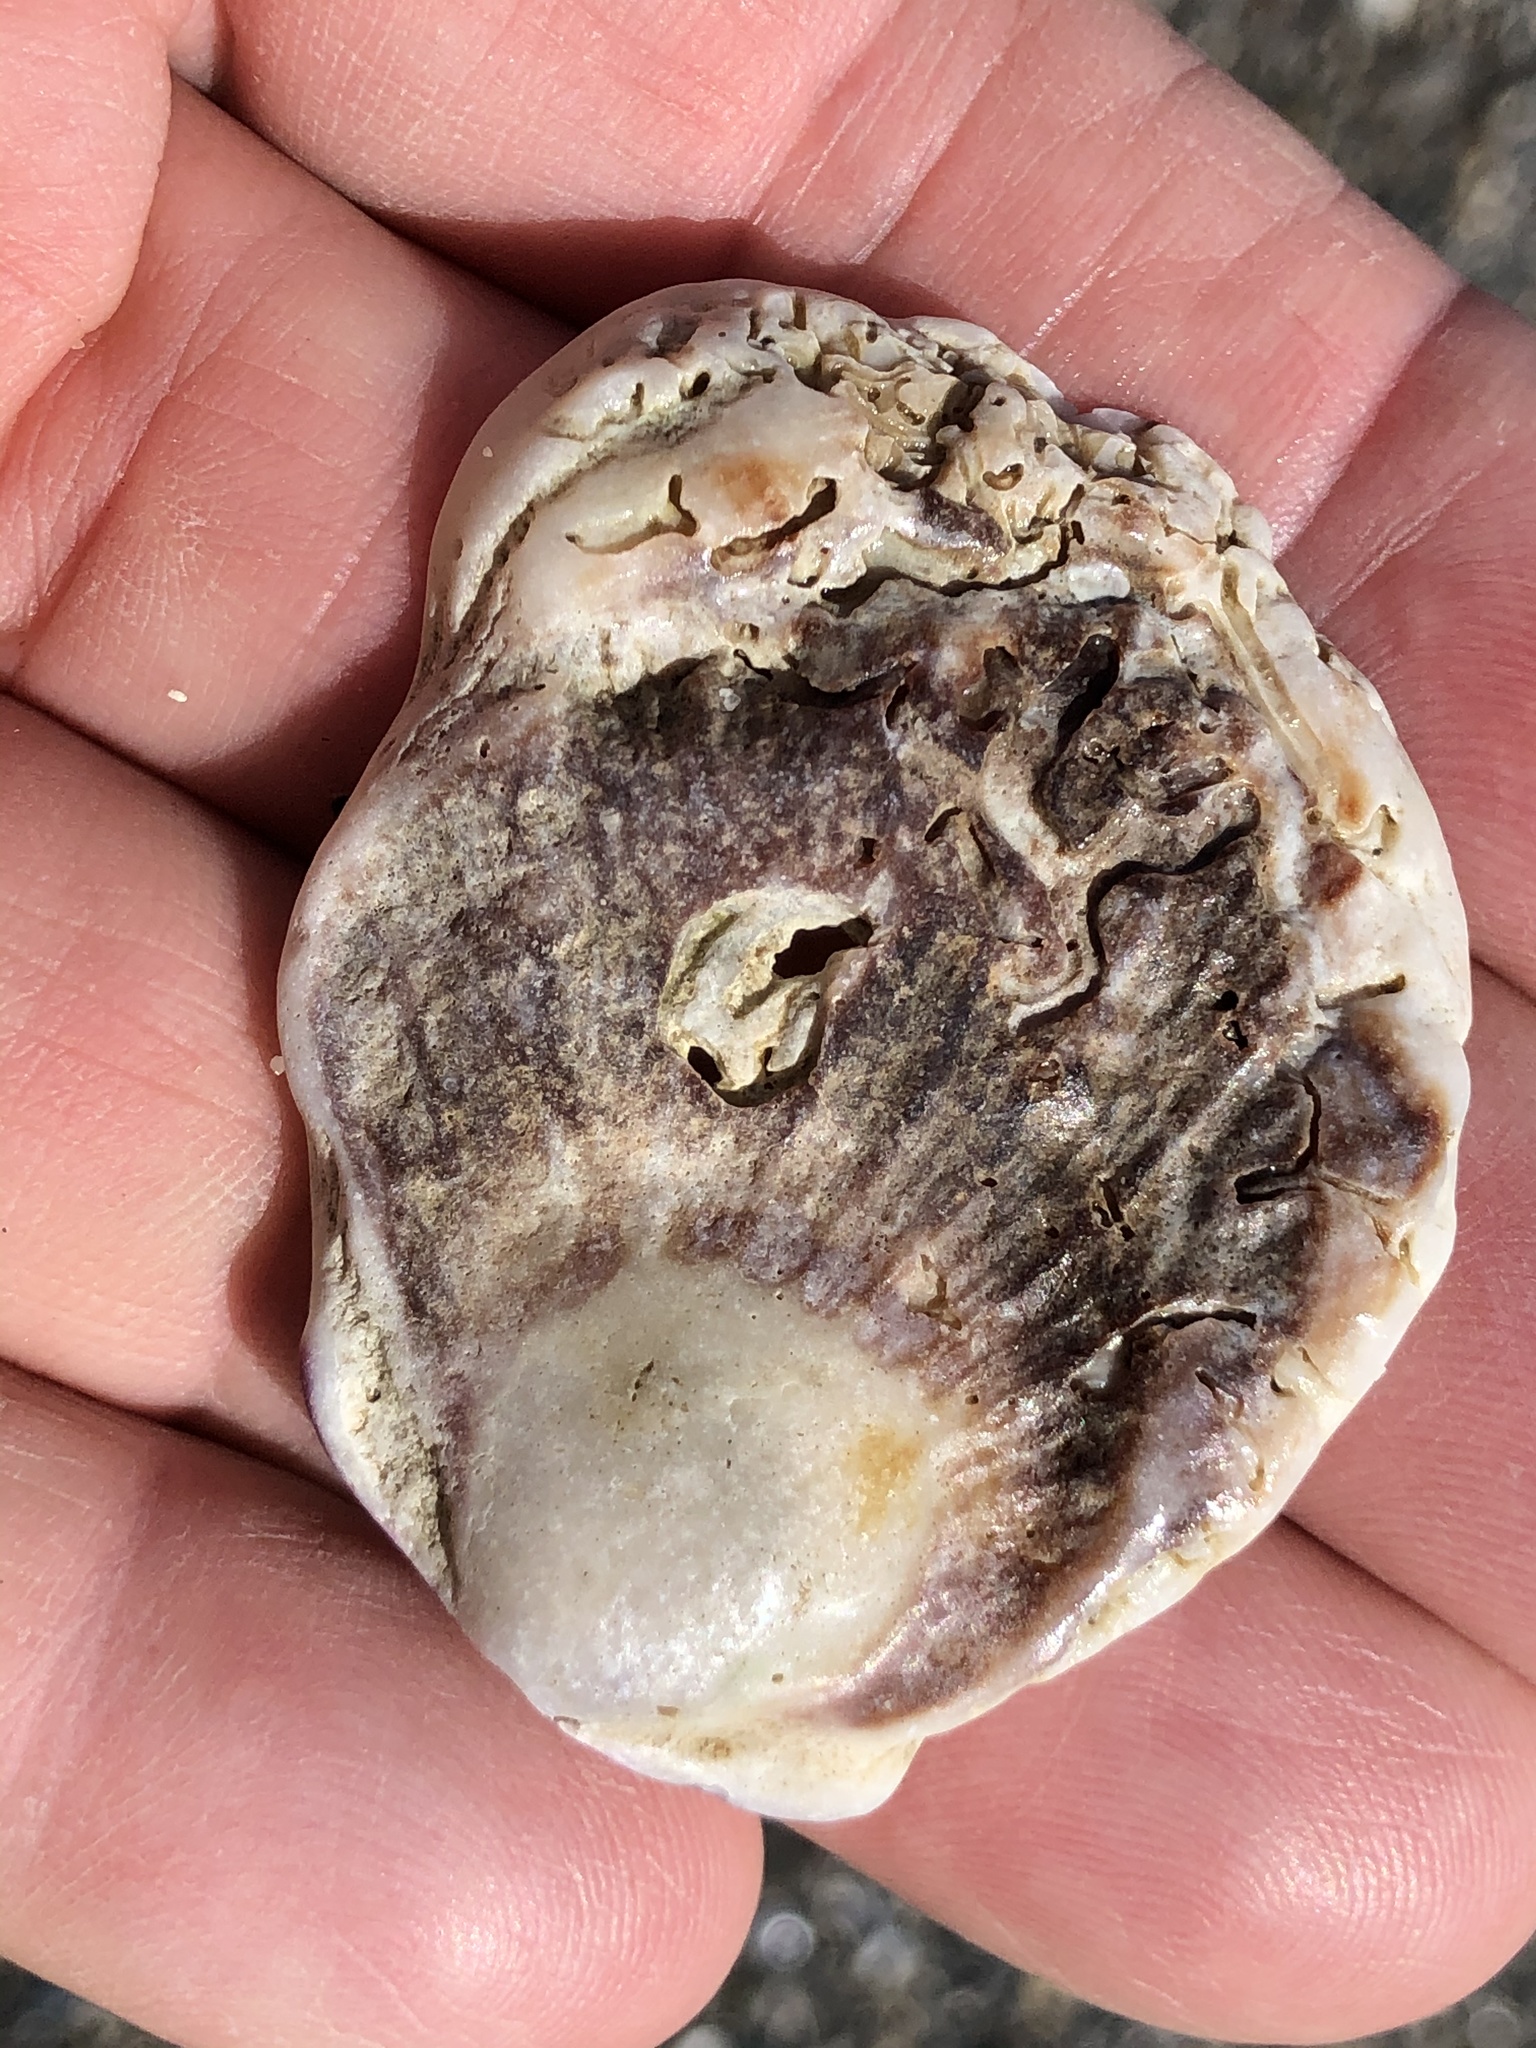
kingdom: Animalia
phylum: Mollusca
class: Bivalvia
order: Pectinida
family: Pectinidae
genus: Crassadoma
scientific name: Crassadoma gigantea
